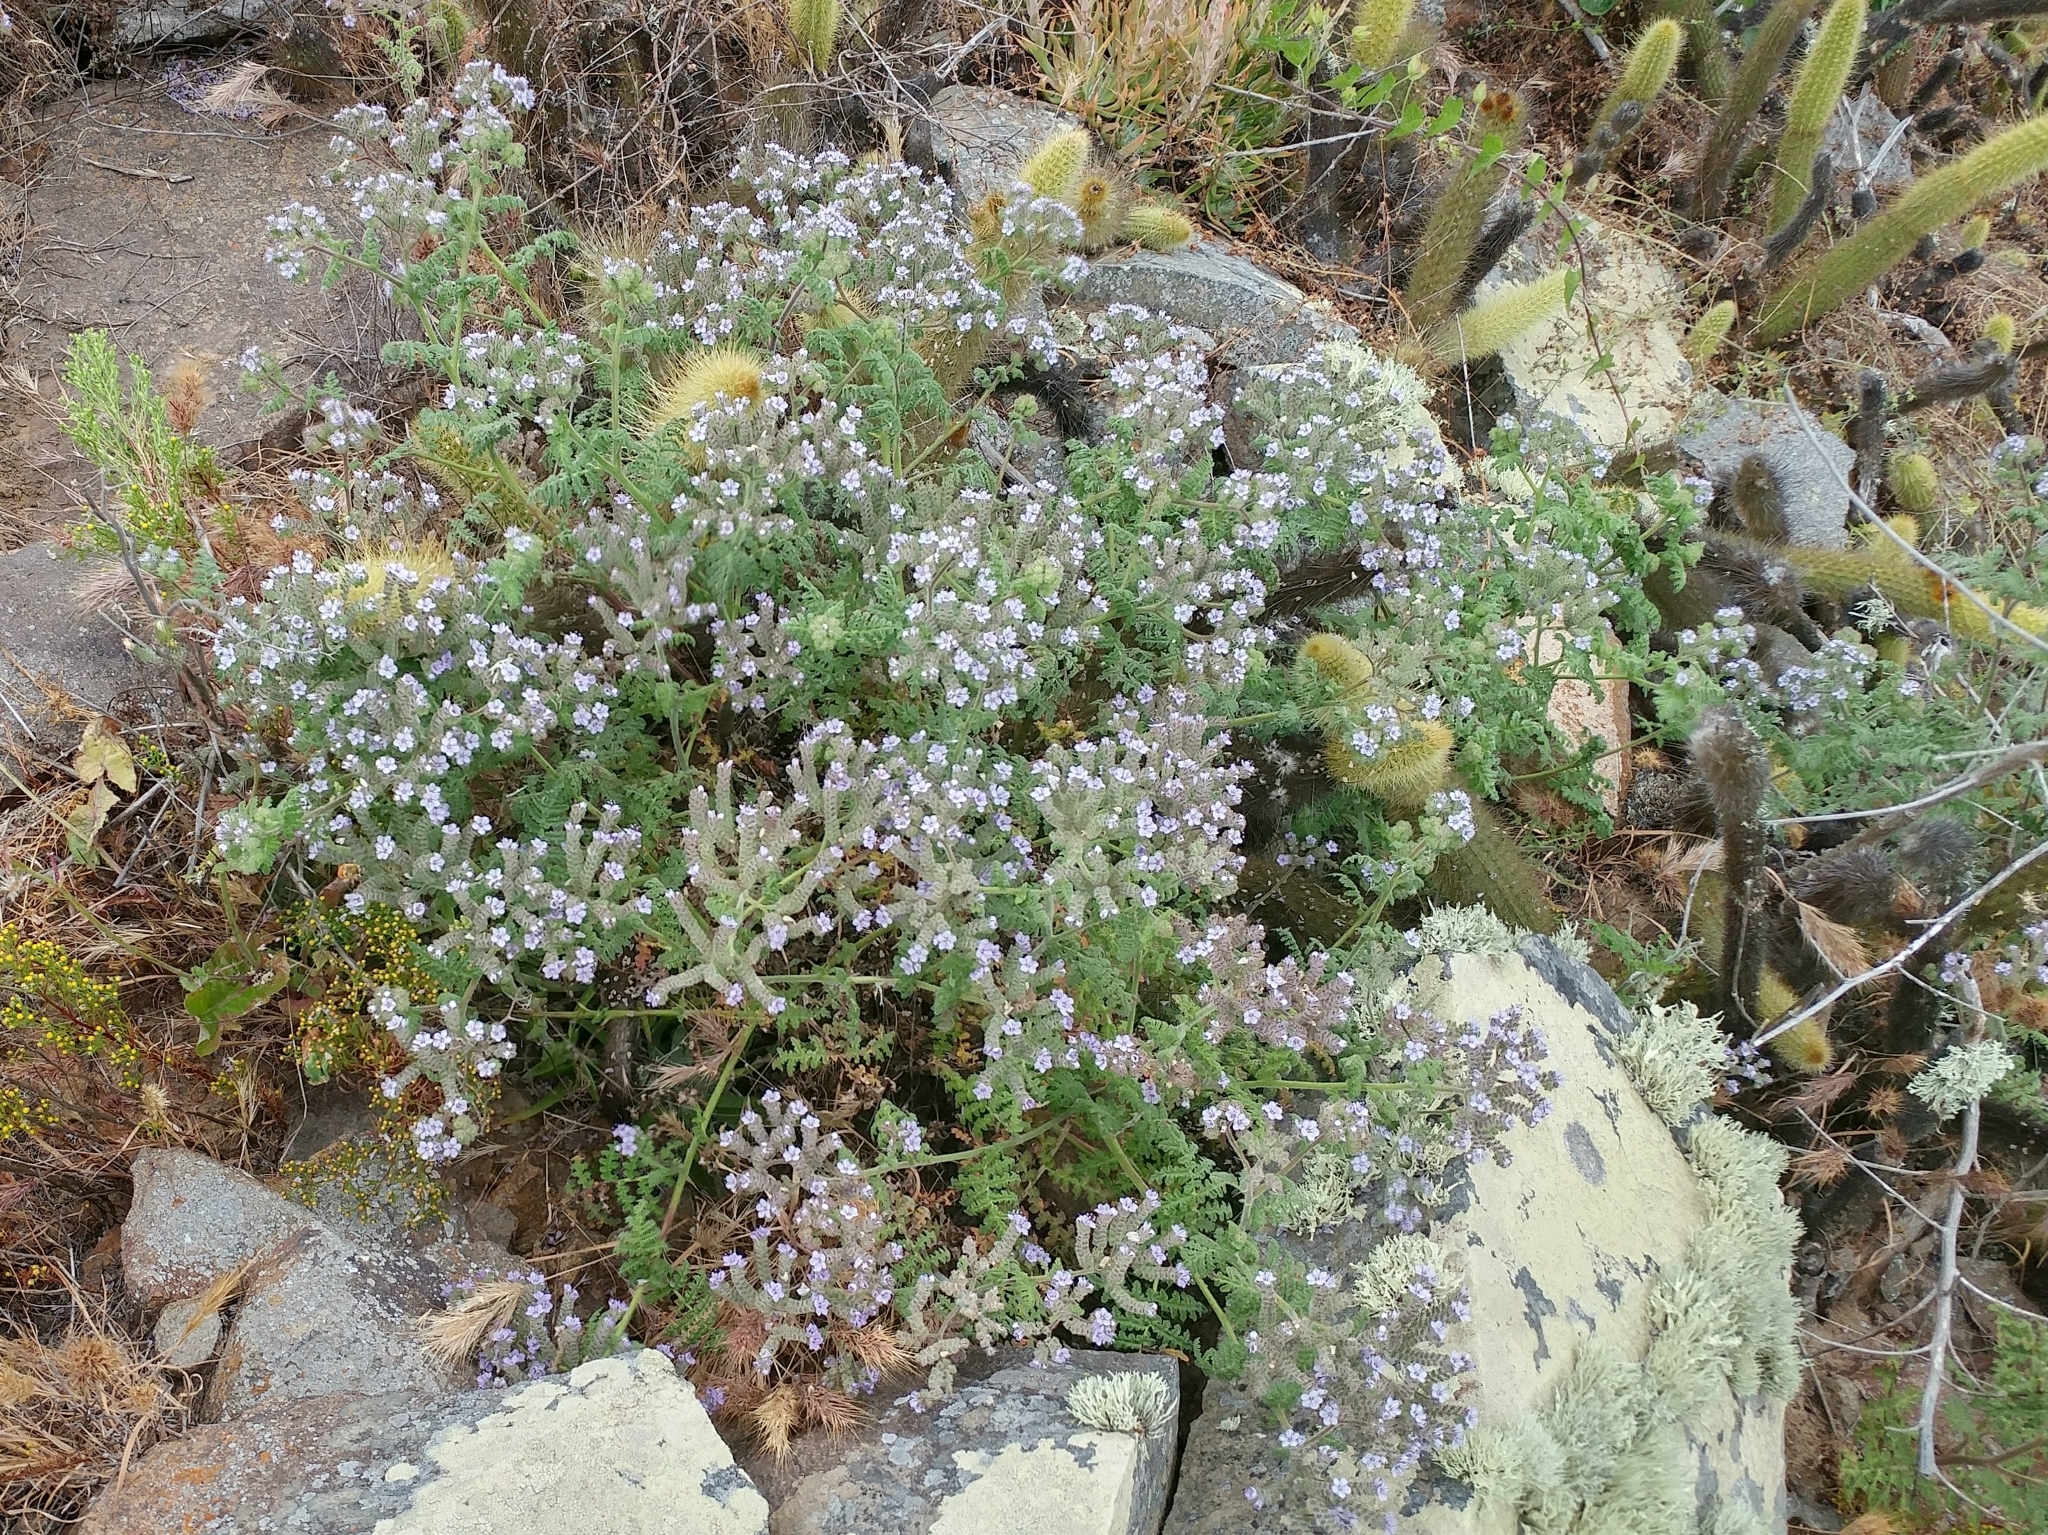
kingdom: Plantae
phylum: Tracheophyta
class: Magnoliopsida
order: Boraginales
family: Hydrophyllaceae
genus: Phacelia
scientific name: Phacelia floribunda
